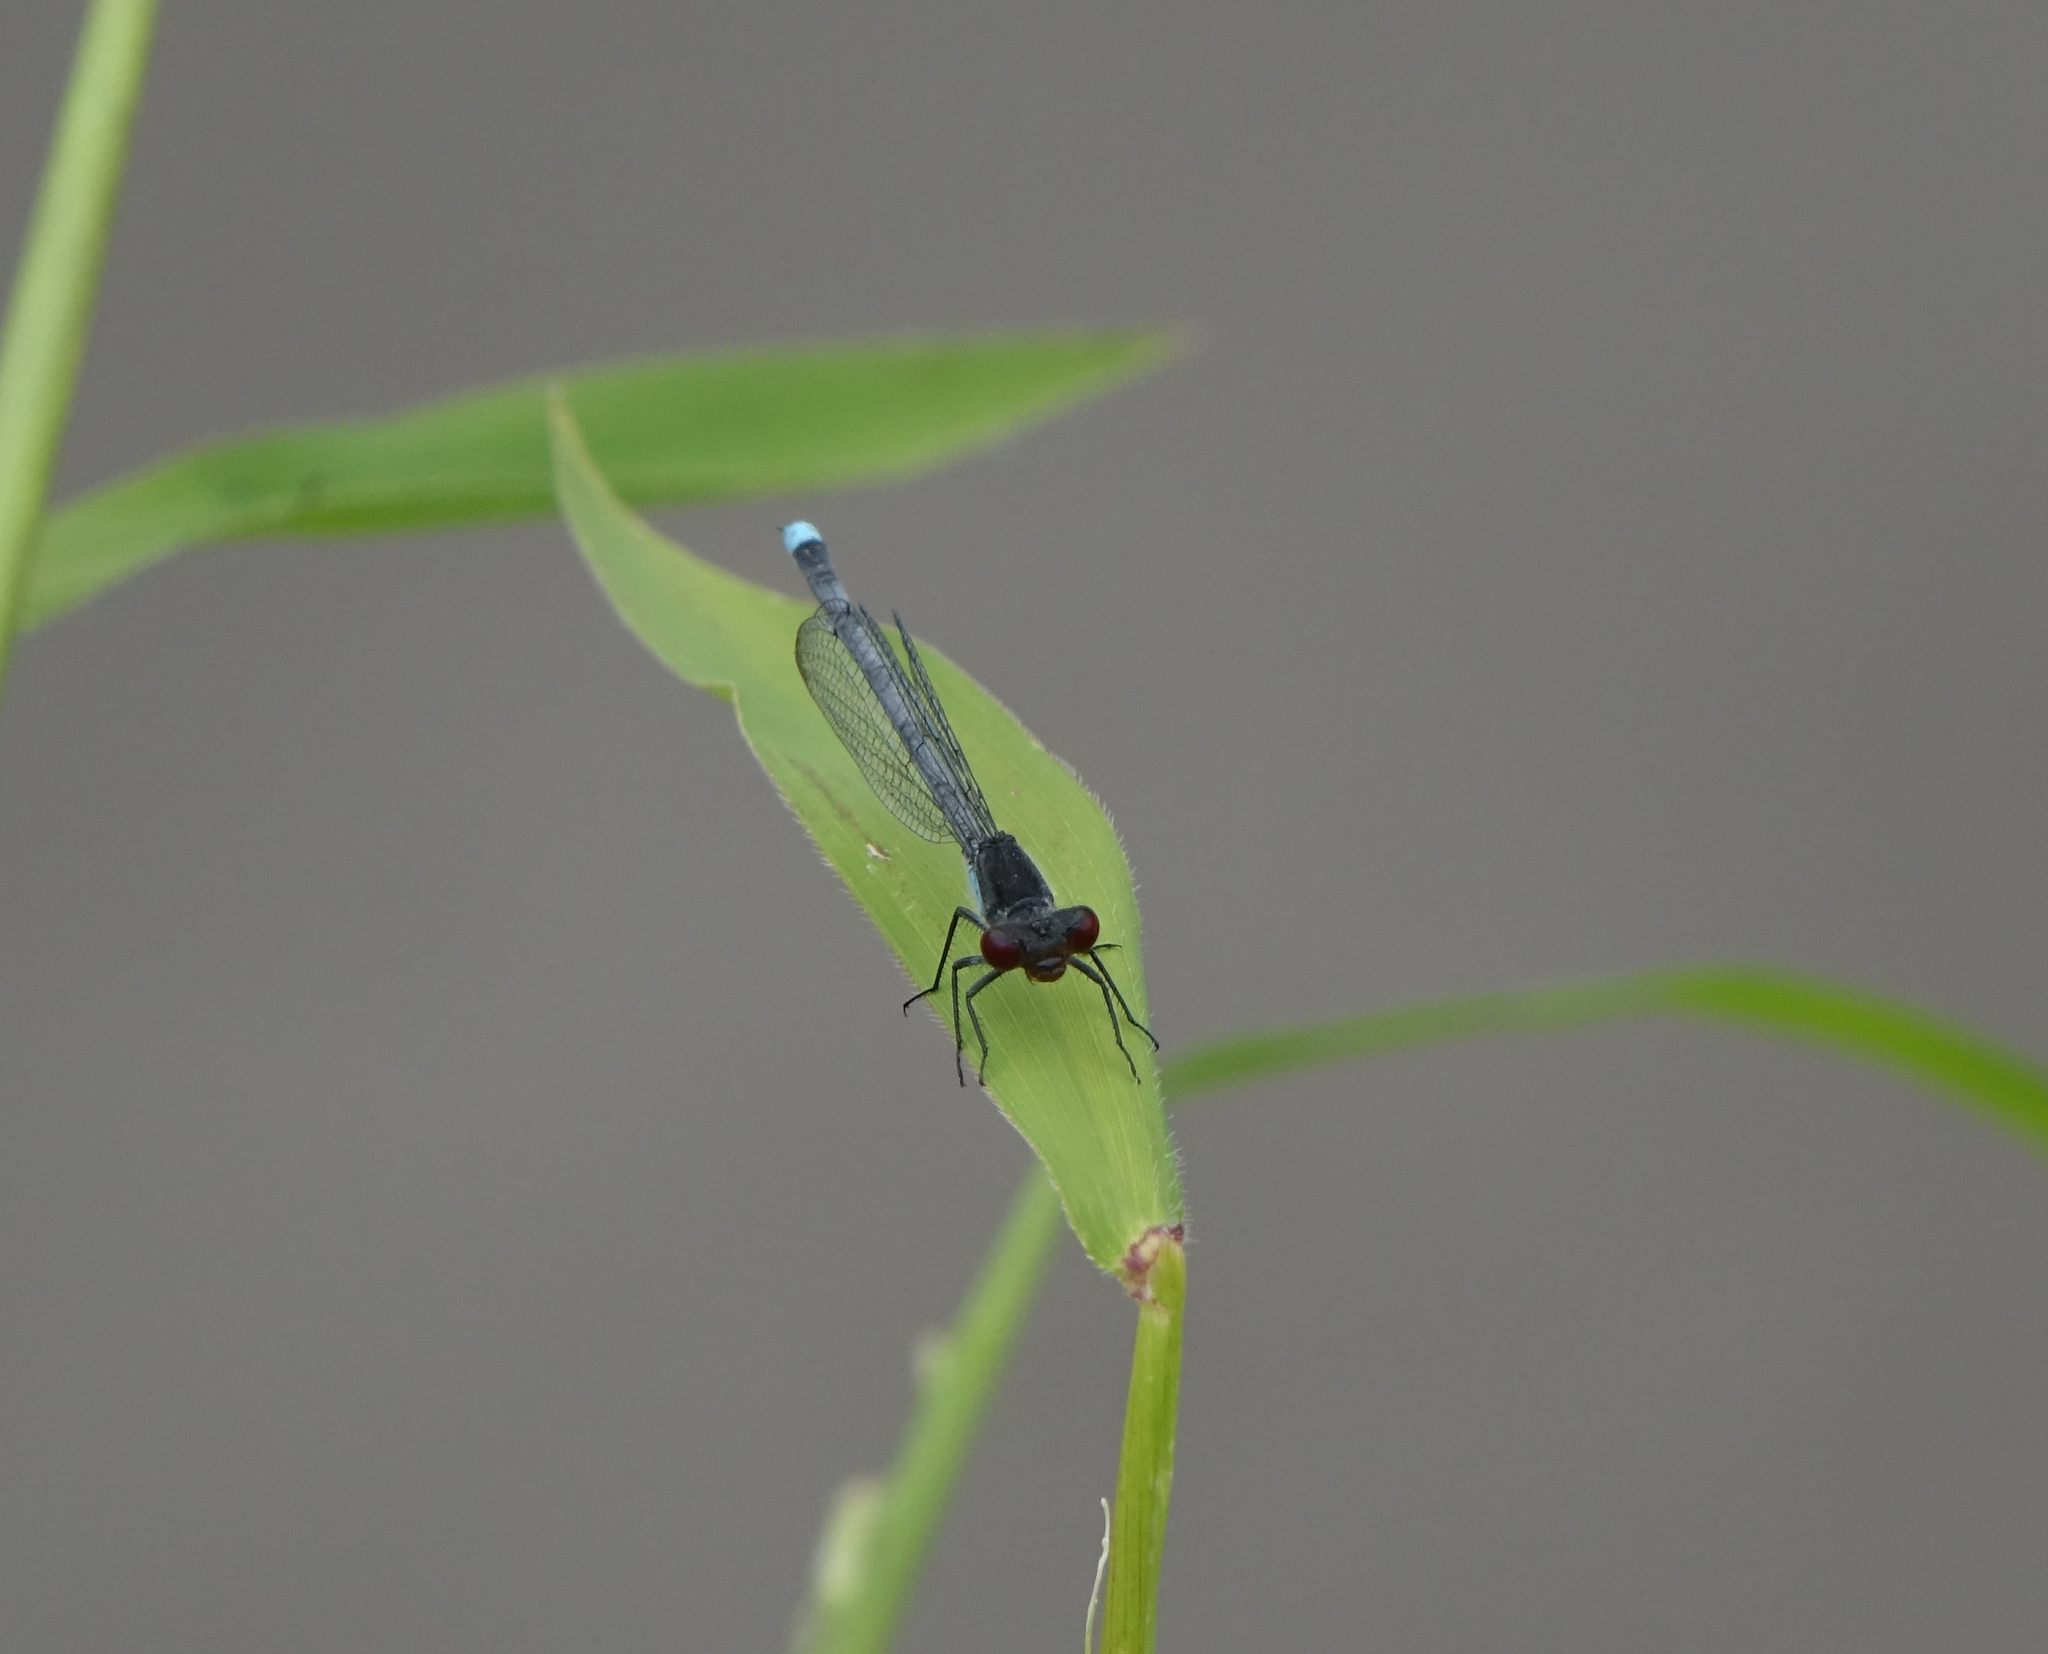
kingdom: Animalia
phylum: Arthropoda
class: Insecta
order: Odonata
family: Coenagrionidae
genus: Erythromma
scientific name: Erythromma najas
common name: Red-eyed damselfly
